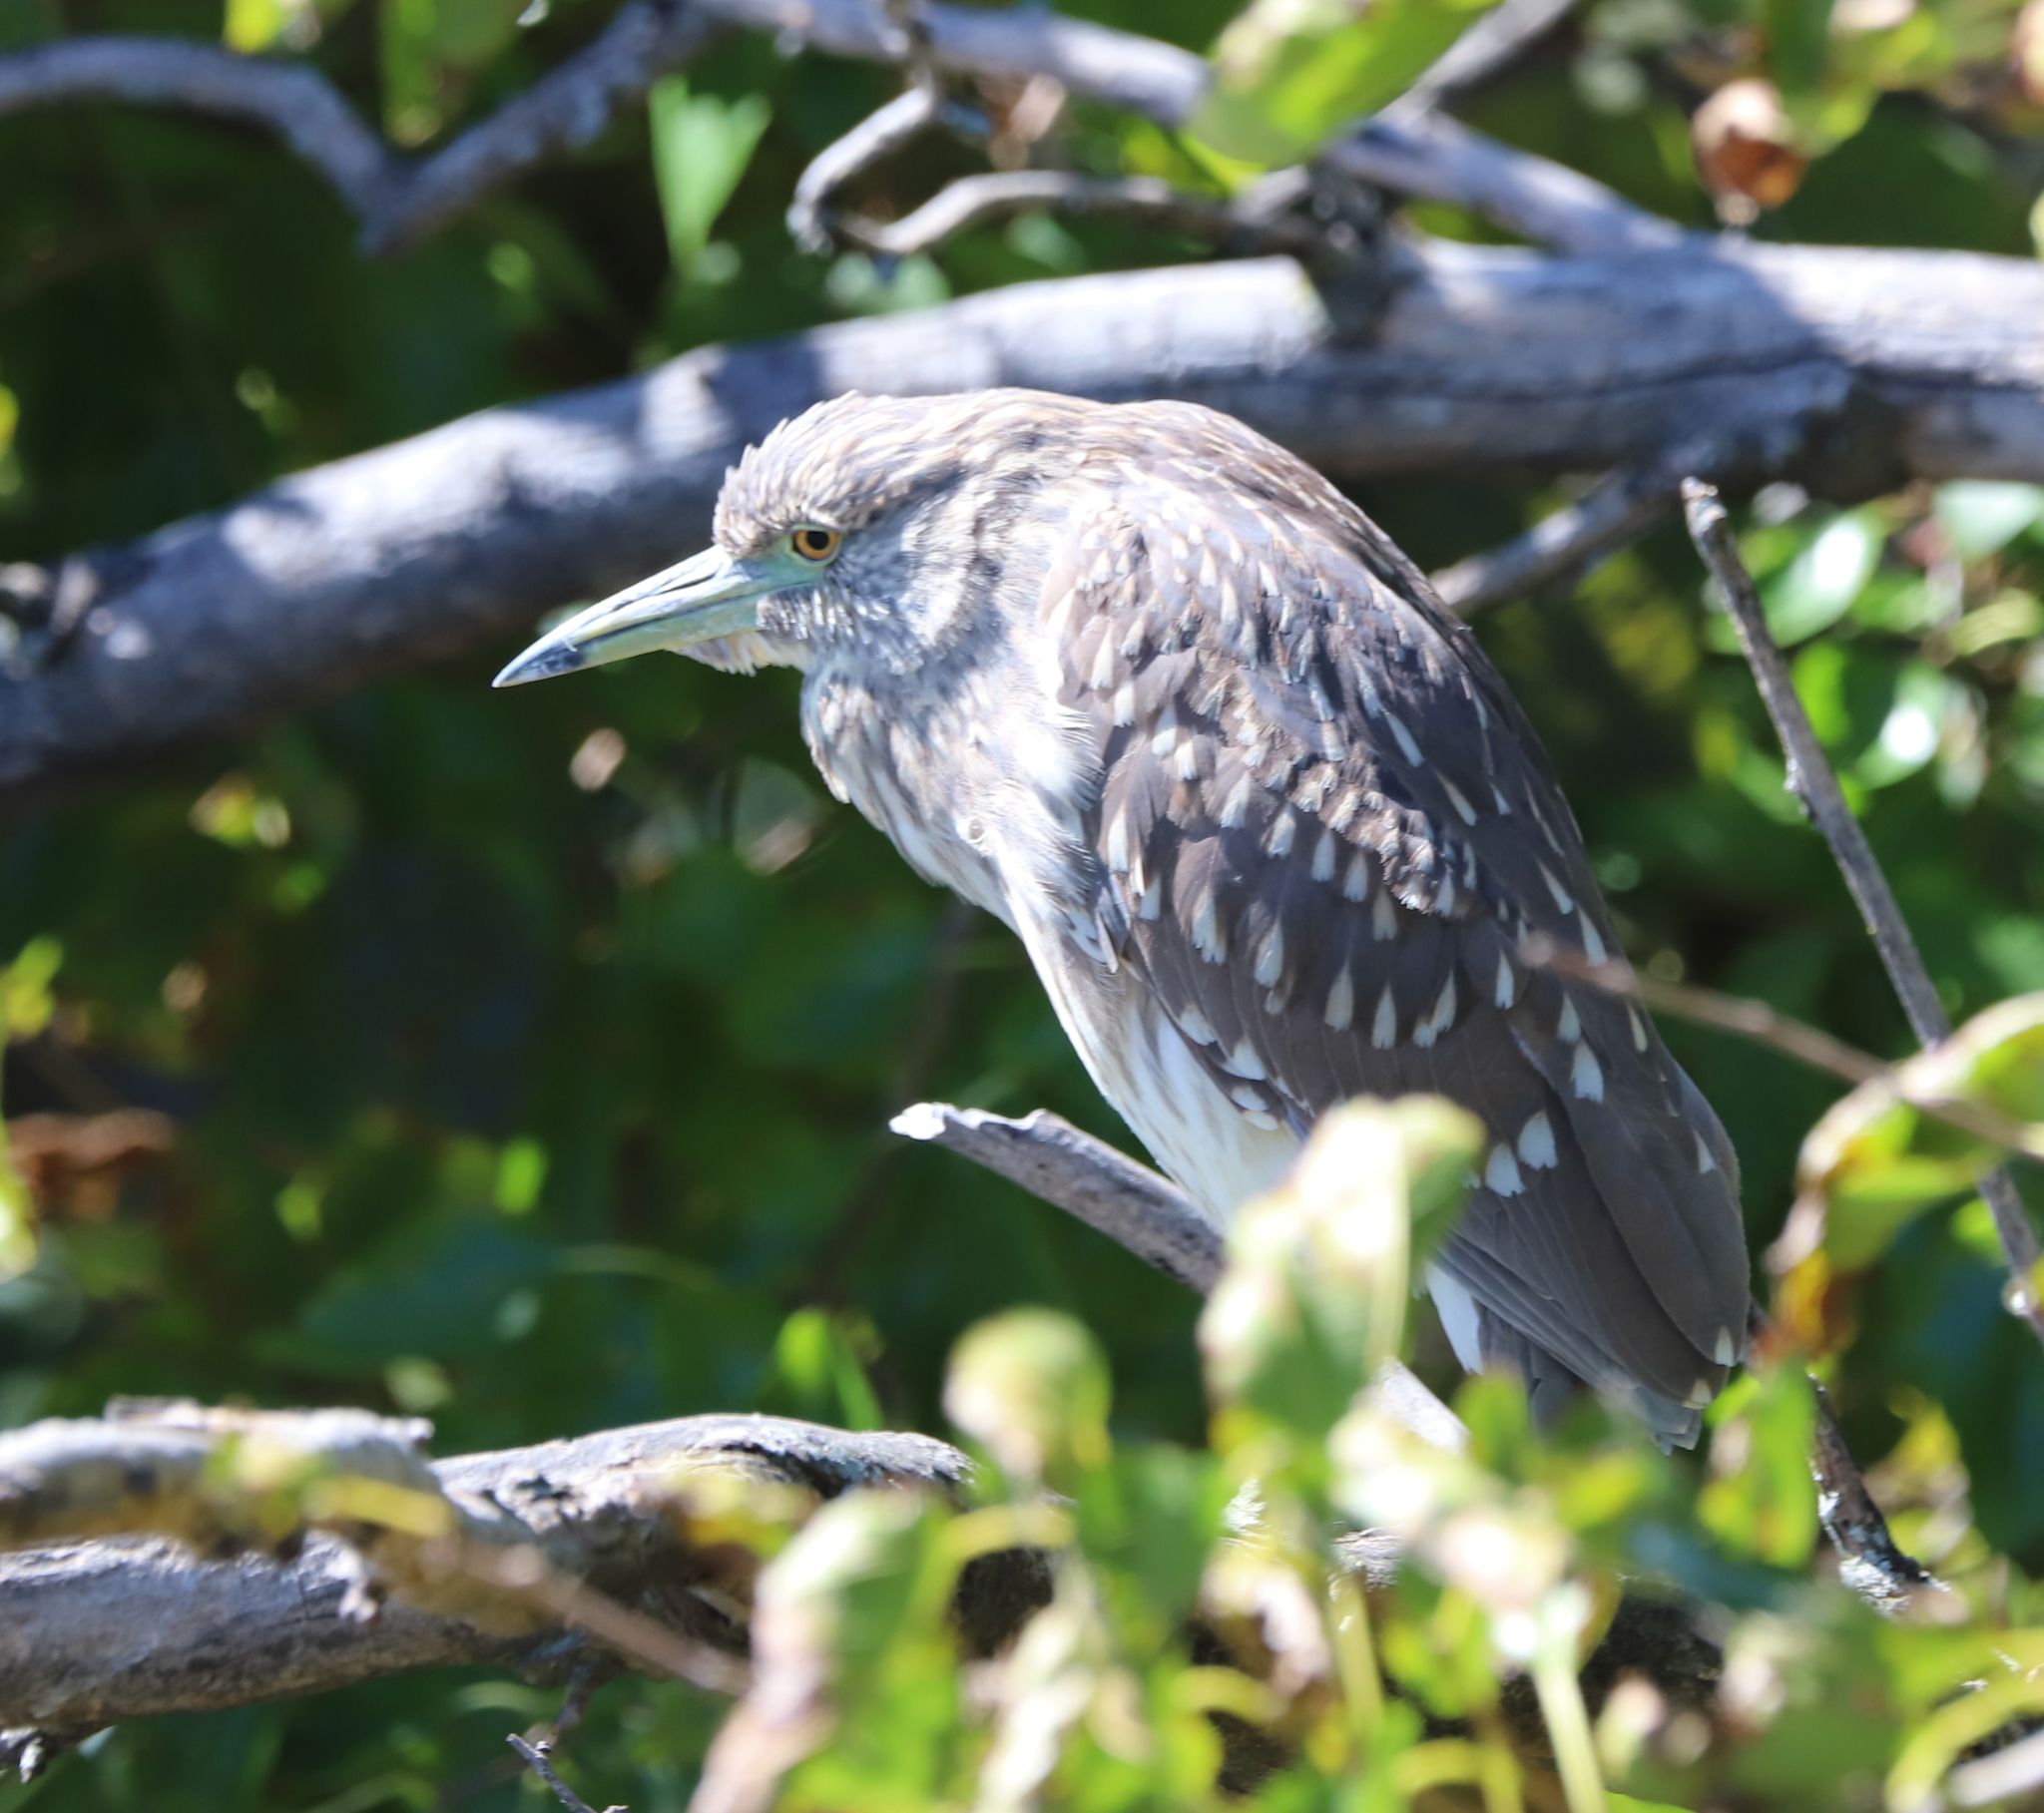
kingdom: Animalia
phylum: Chordata
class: Aves
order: Pelecaniformes
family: Ardeidae
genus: Nycticorax
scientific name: Nycticorax nycticorax
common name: Black-crowned night heron
